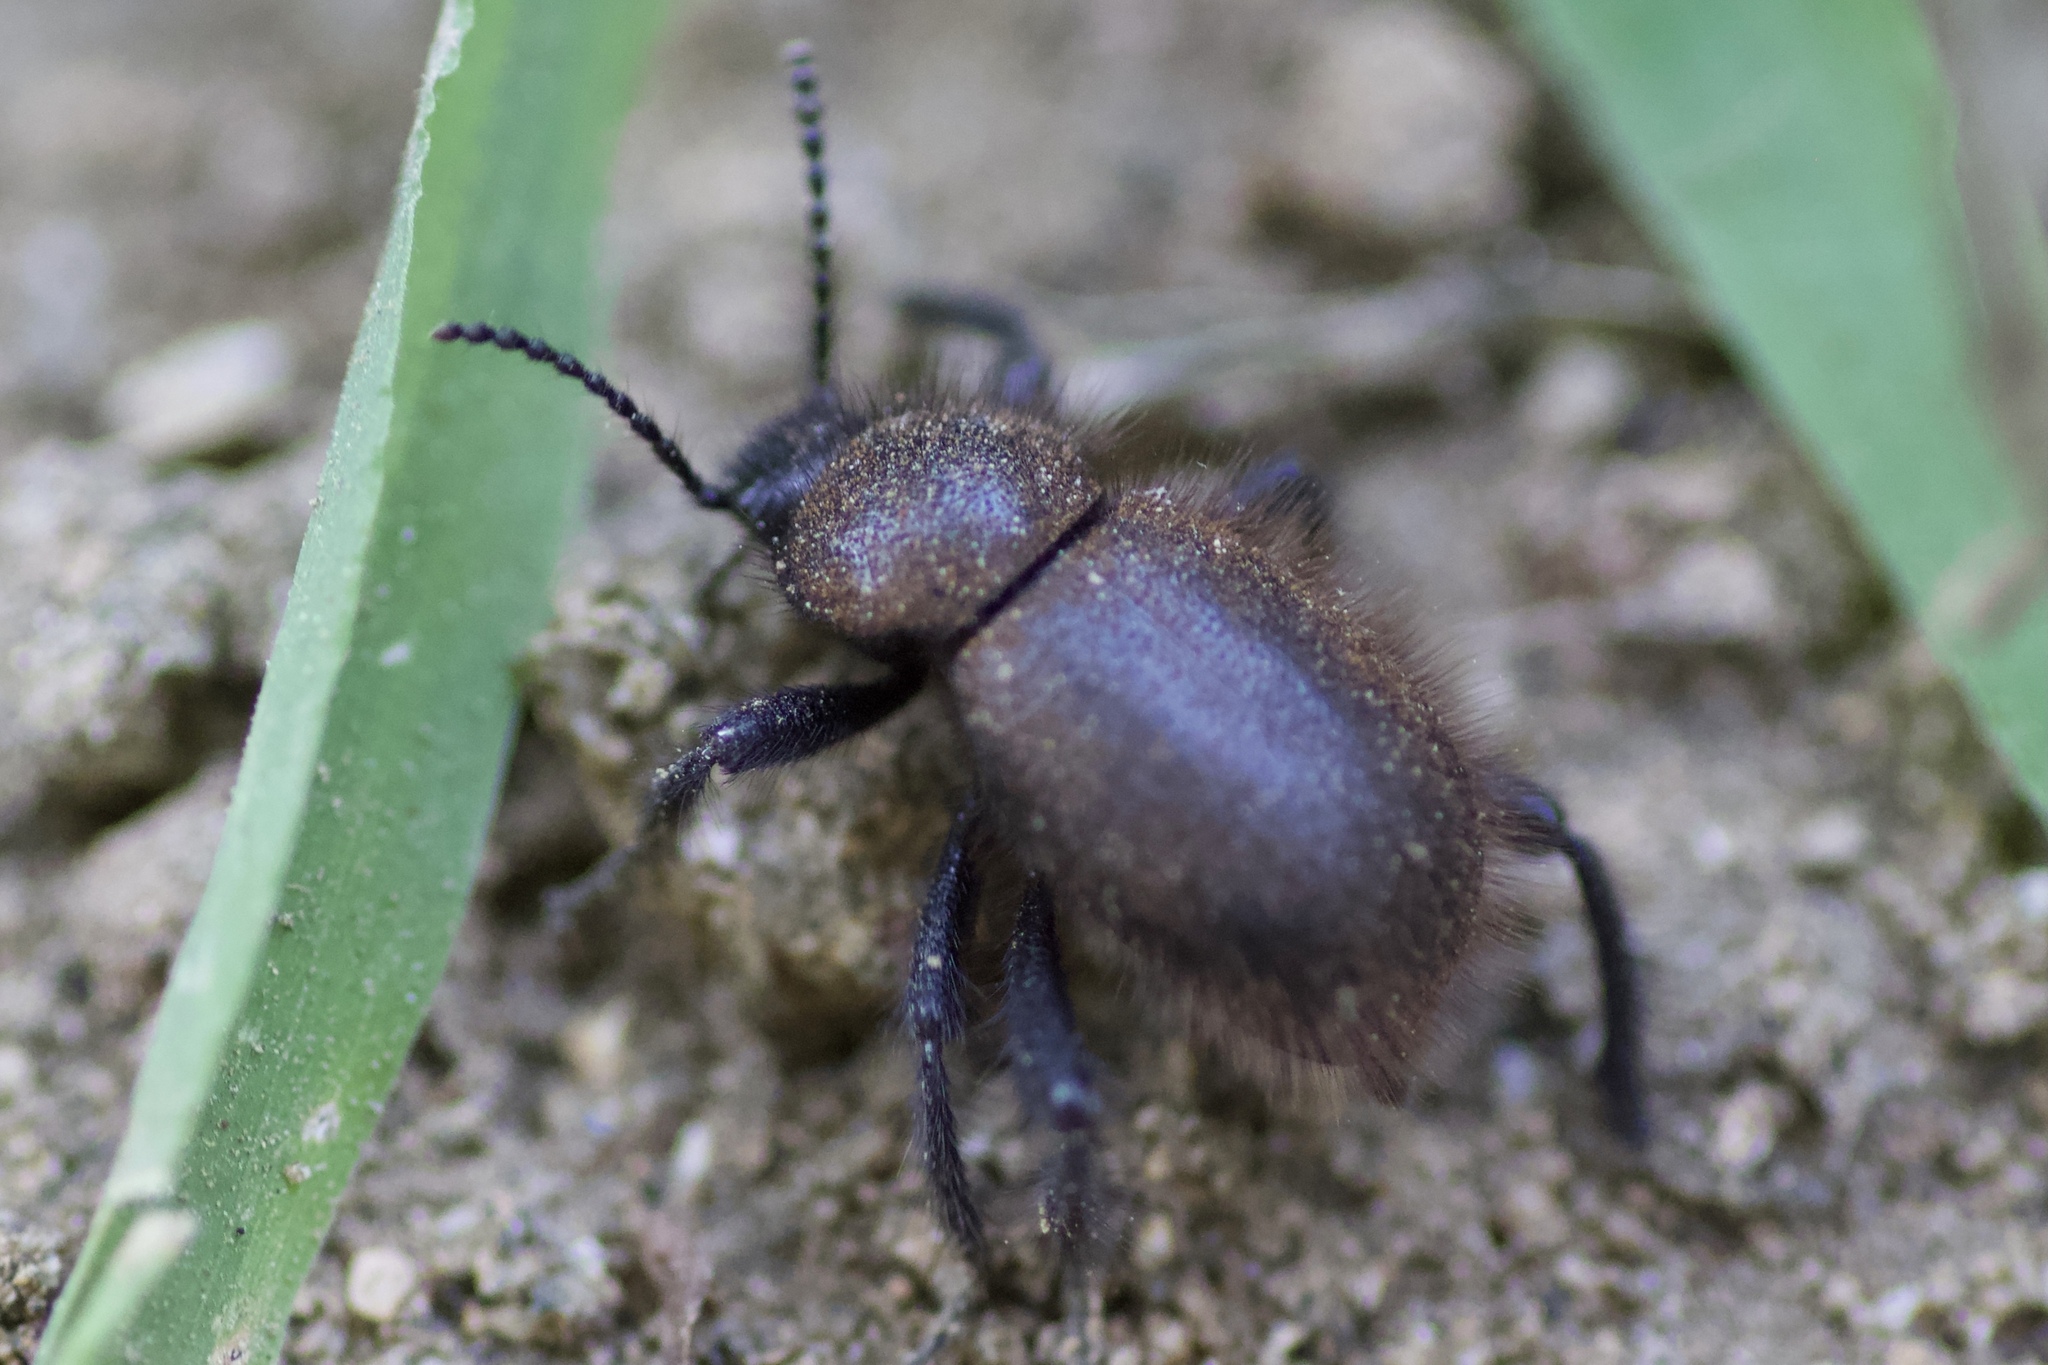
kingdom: Animalia
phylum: Arthropoda
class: Insecta
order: Coleoptera
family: Tenebrionidae
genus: Eleodes
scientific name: Eleodes osculans
